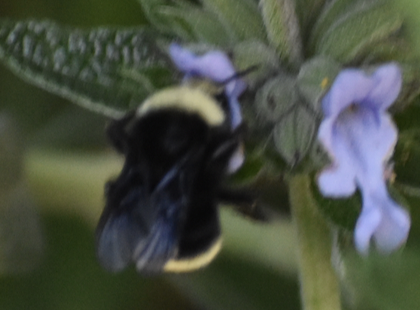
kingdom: Animalia
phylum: Arthropoda
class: Insecta
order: Hymenoptera
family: Apidae
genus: Bombus
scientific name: Bombus vosnesenskii
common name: Vosnesensky bumble bee
